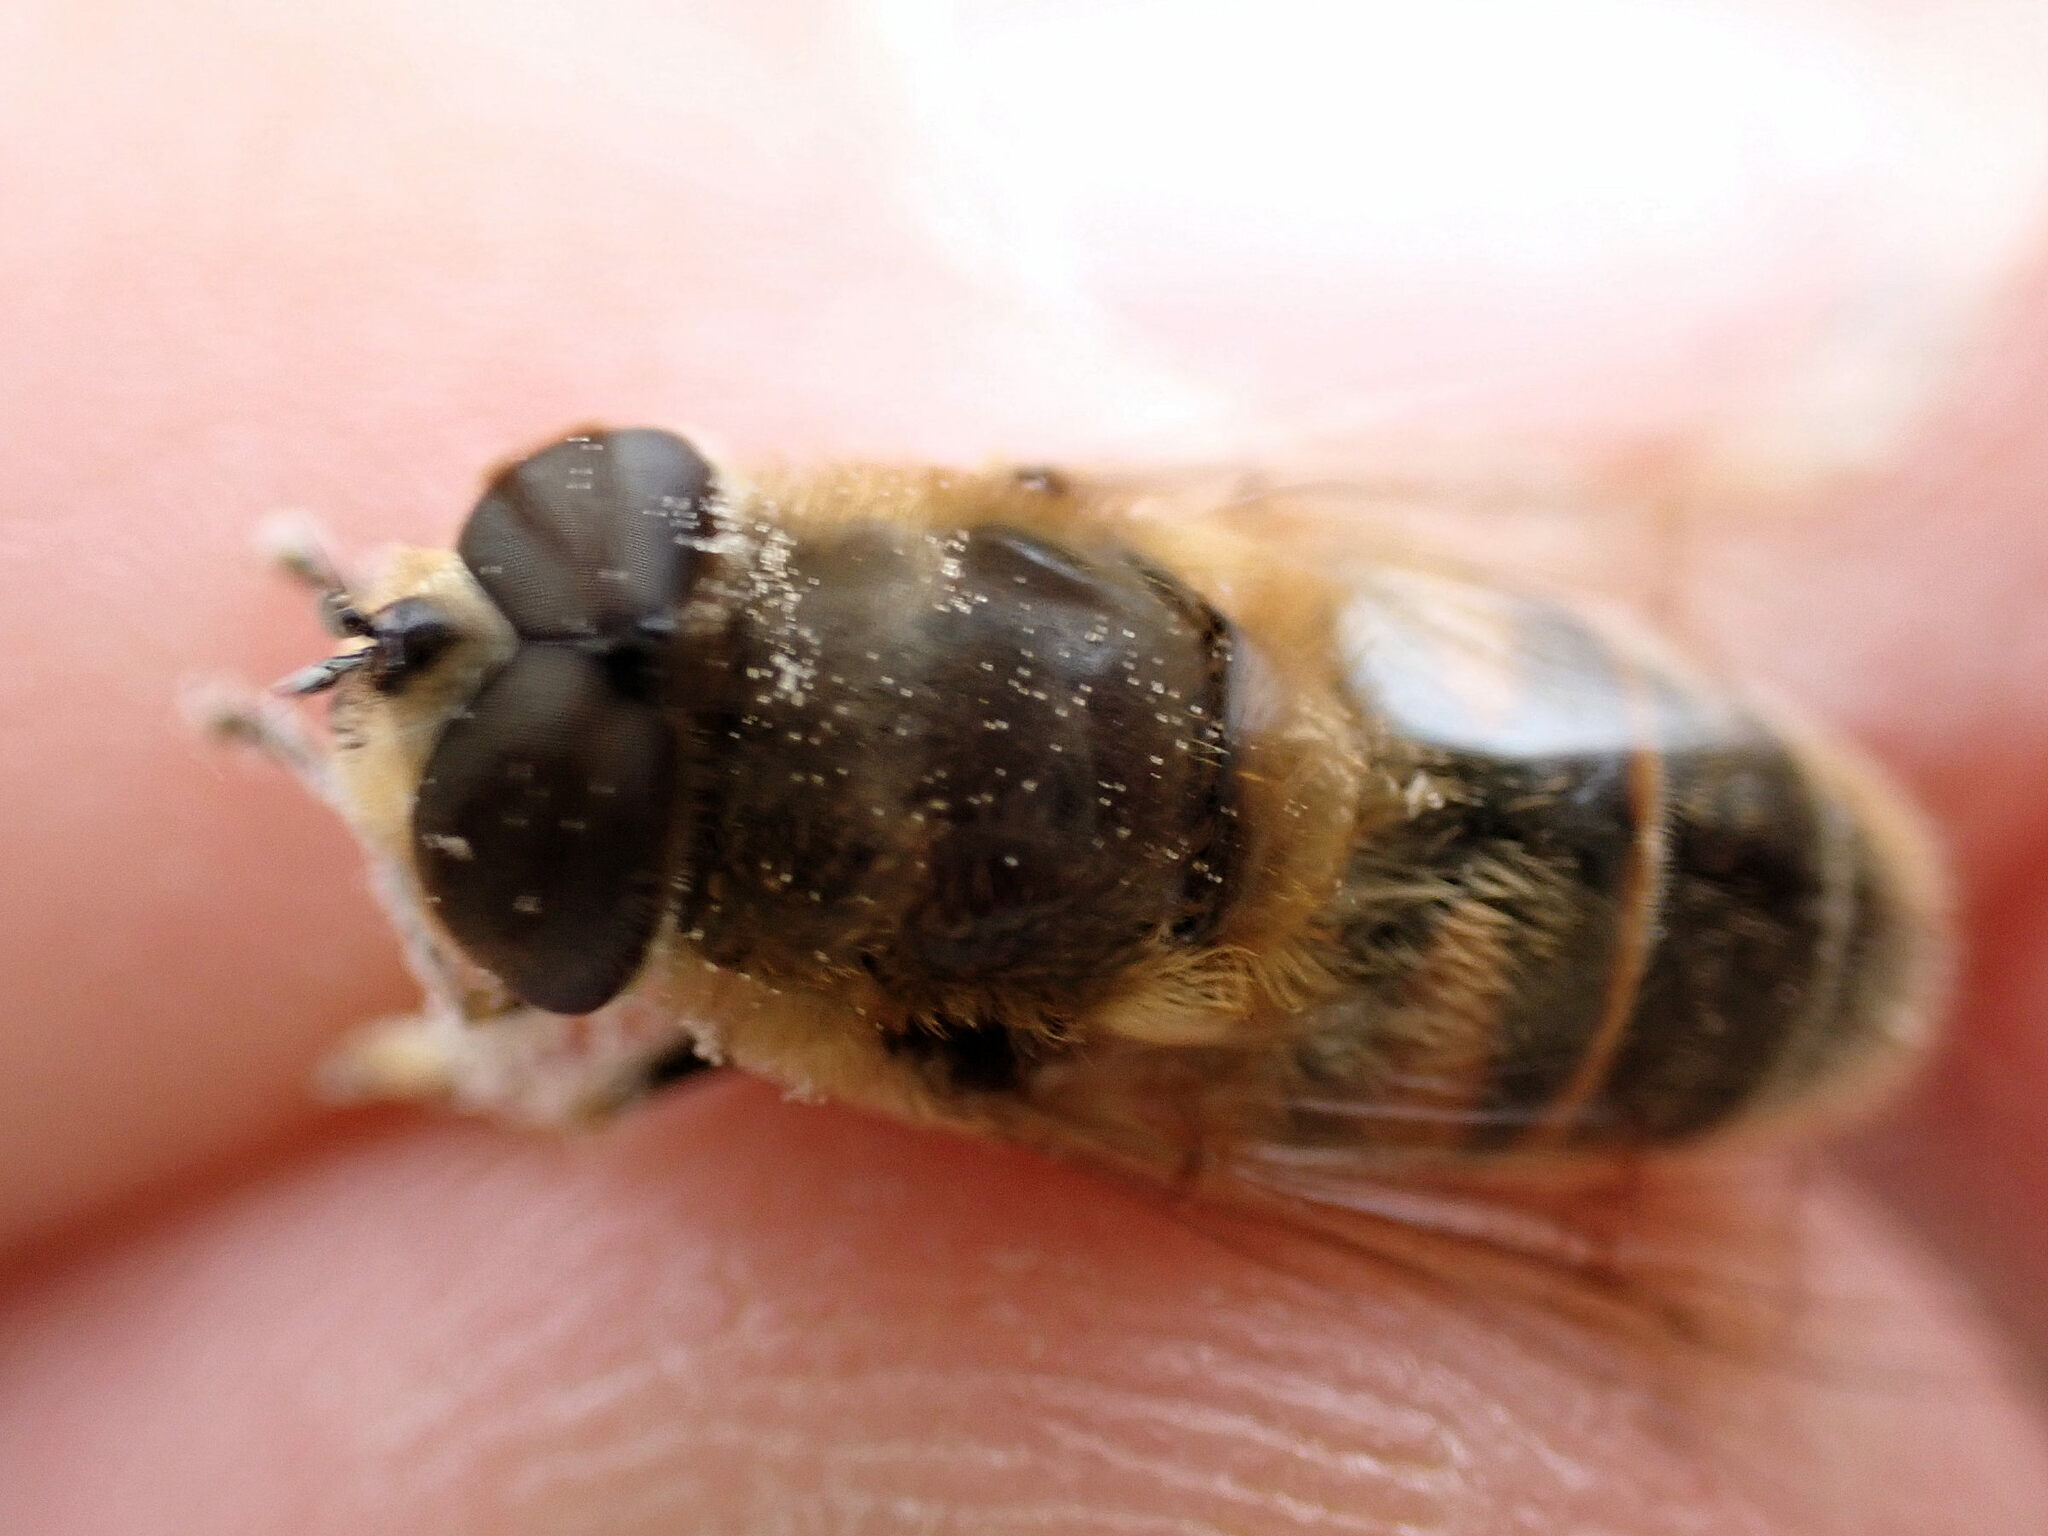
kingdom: Animalia
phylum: Arthropoda
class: Insecta
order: Diptera
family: Syrphidae
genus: Eristalis
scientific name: Eristalis tenax
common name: Drone fly
